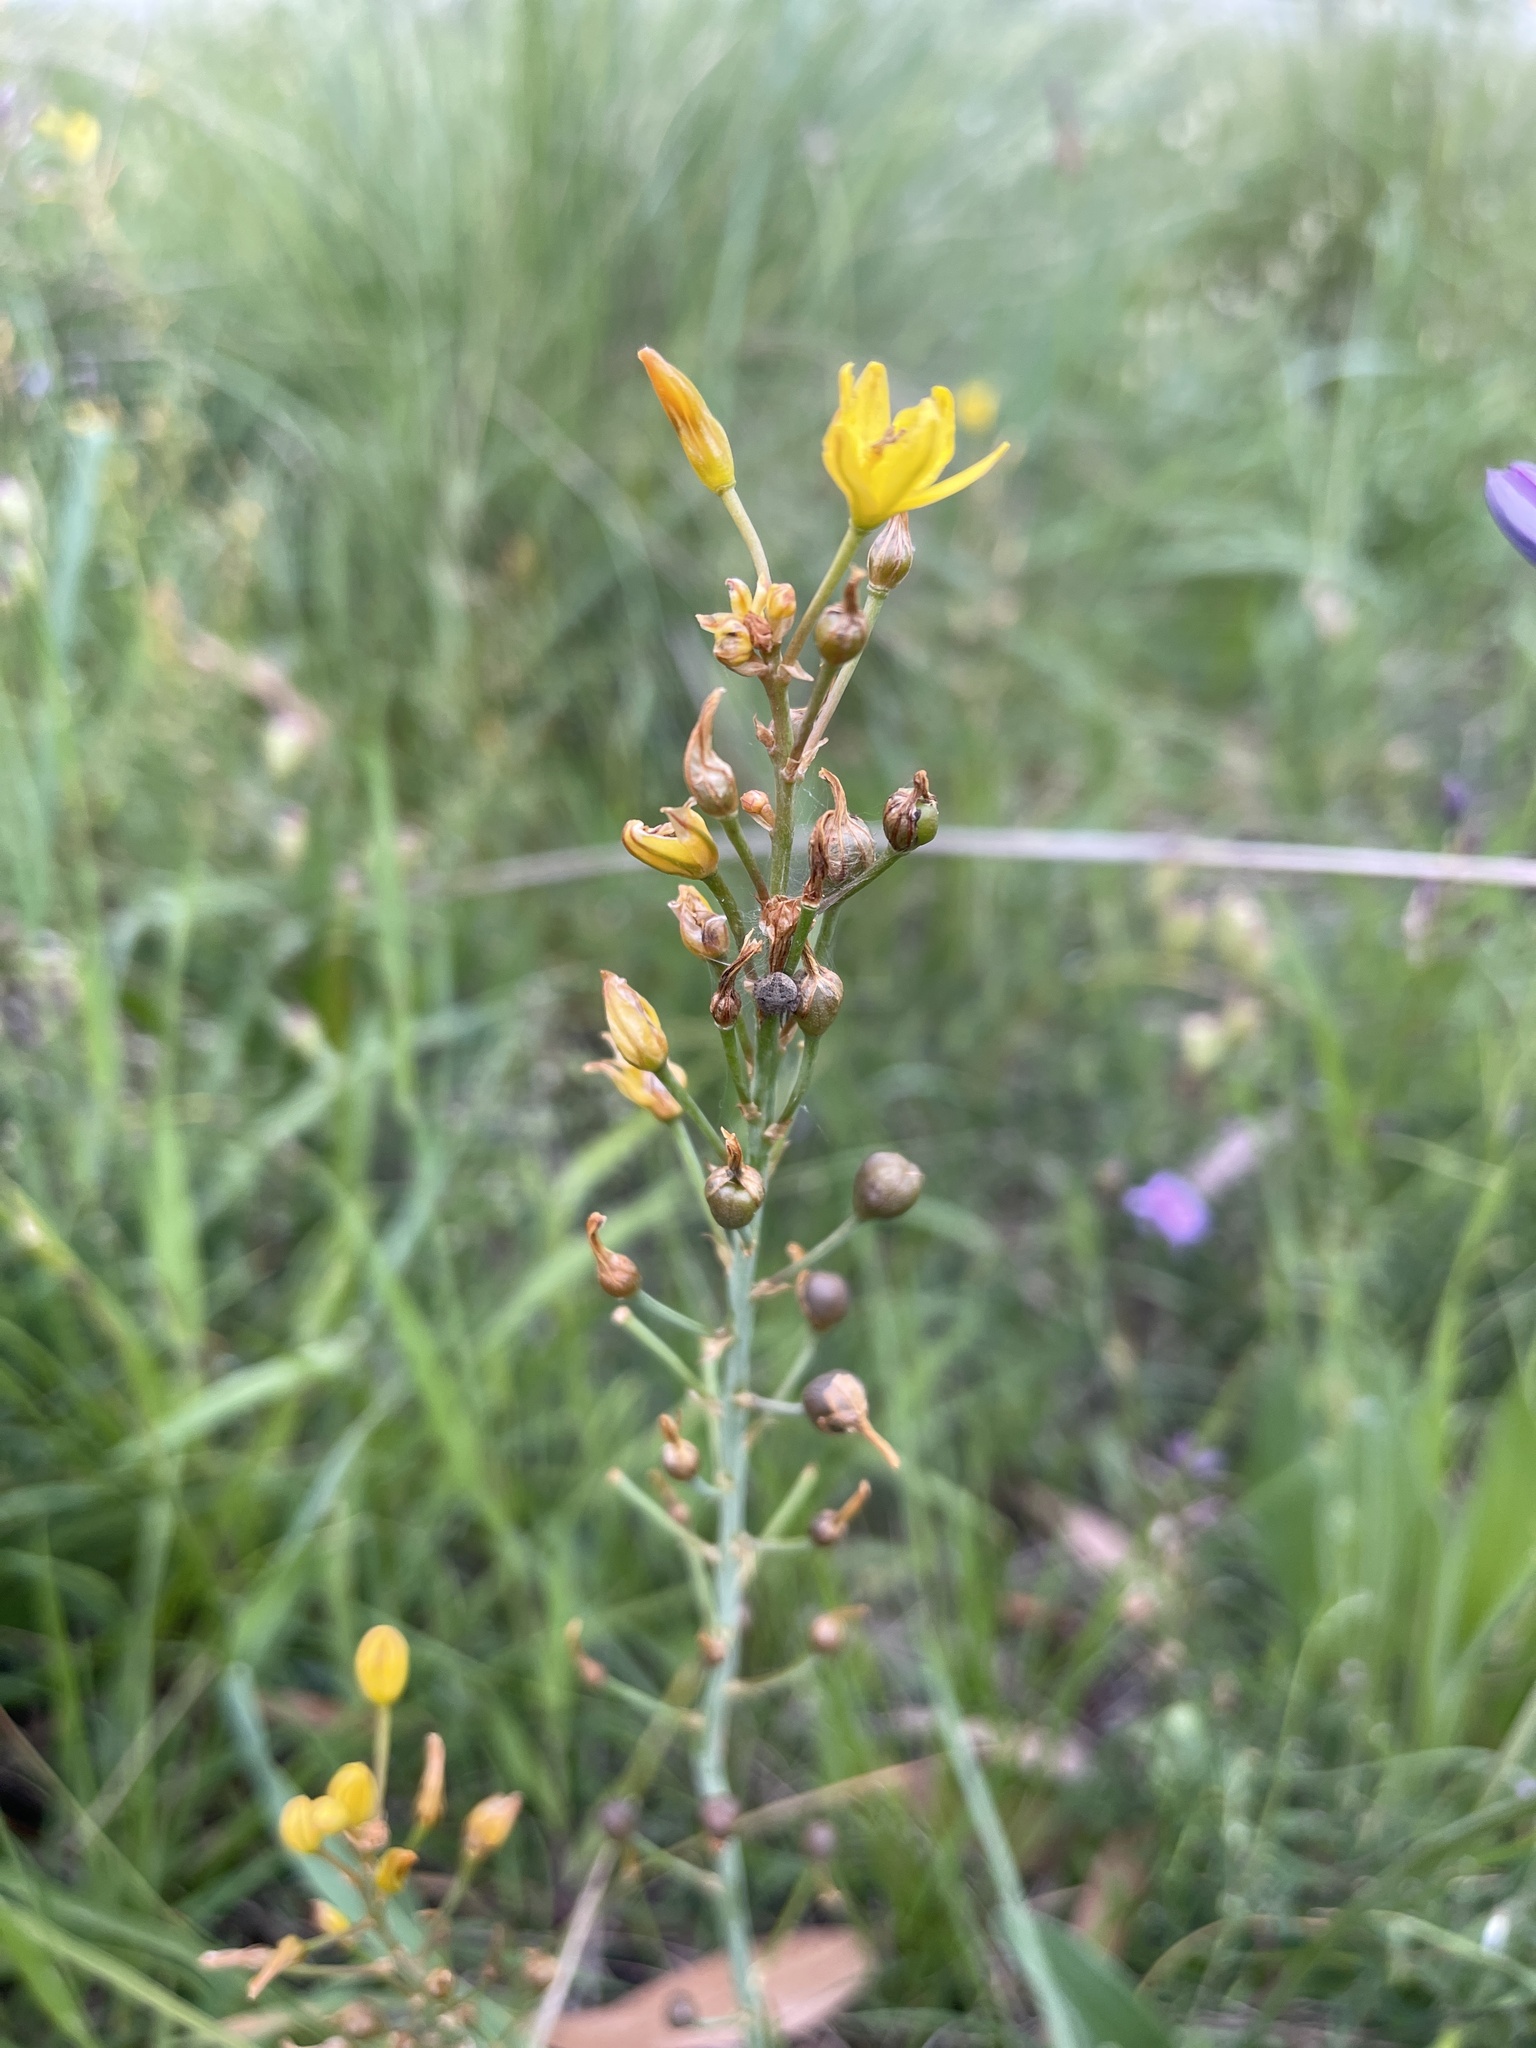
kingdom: Plantae
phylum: Tracheophyta
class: Liliopsida
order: Asparagales
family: Asphodelaceae
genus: Bulbine
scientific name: Bulbine bulbosa
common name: Golden-lily
